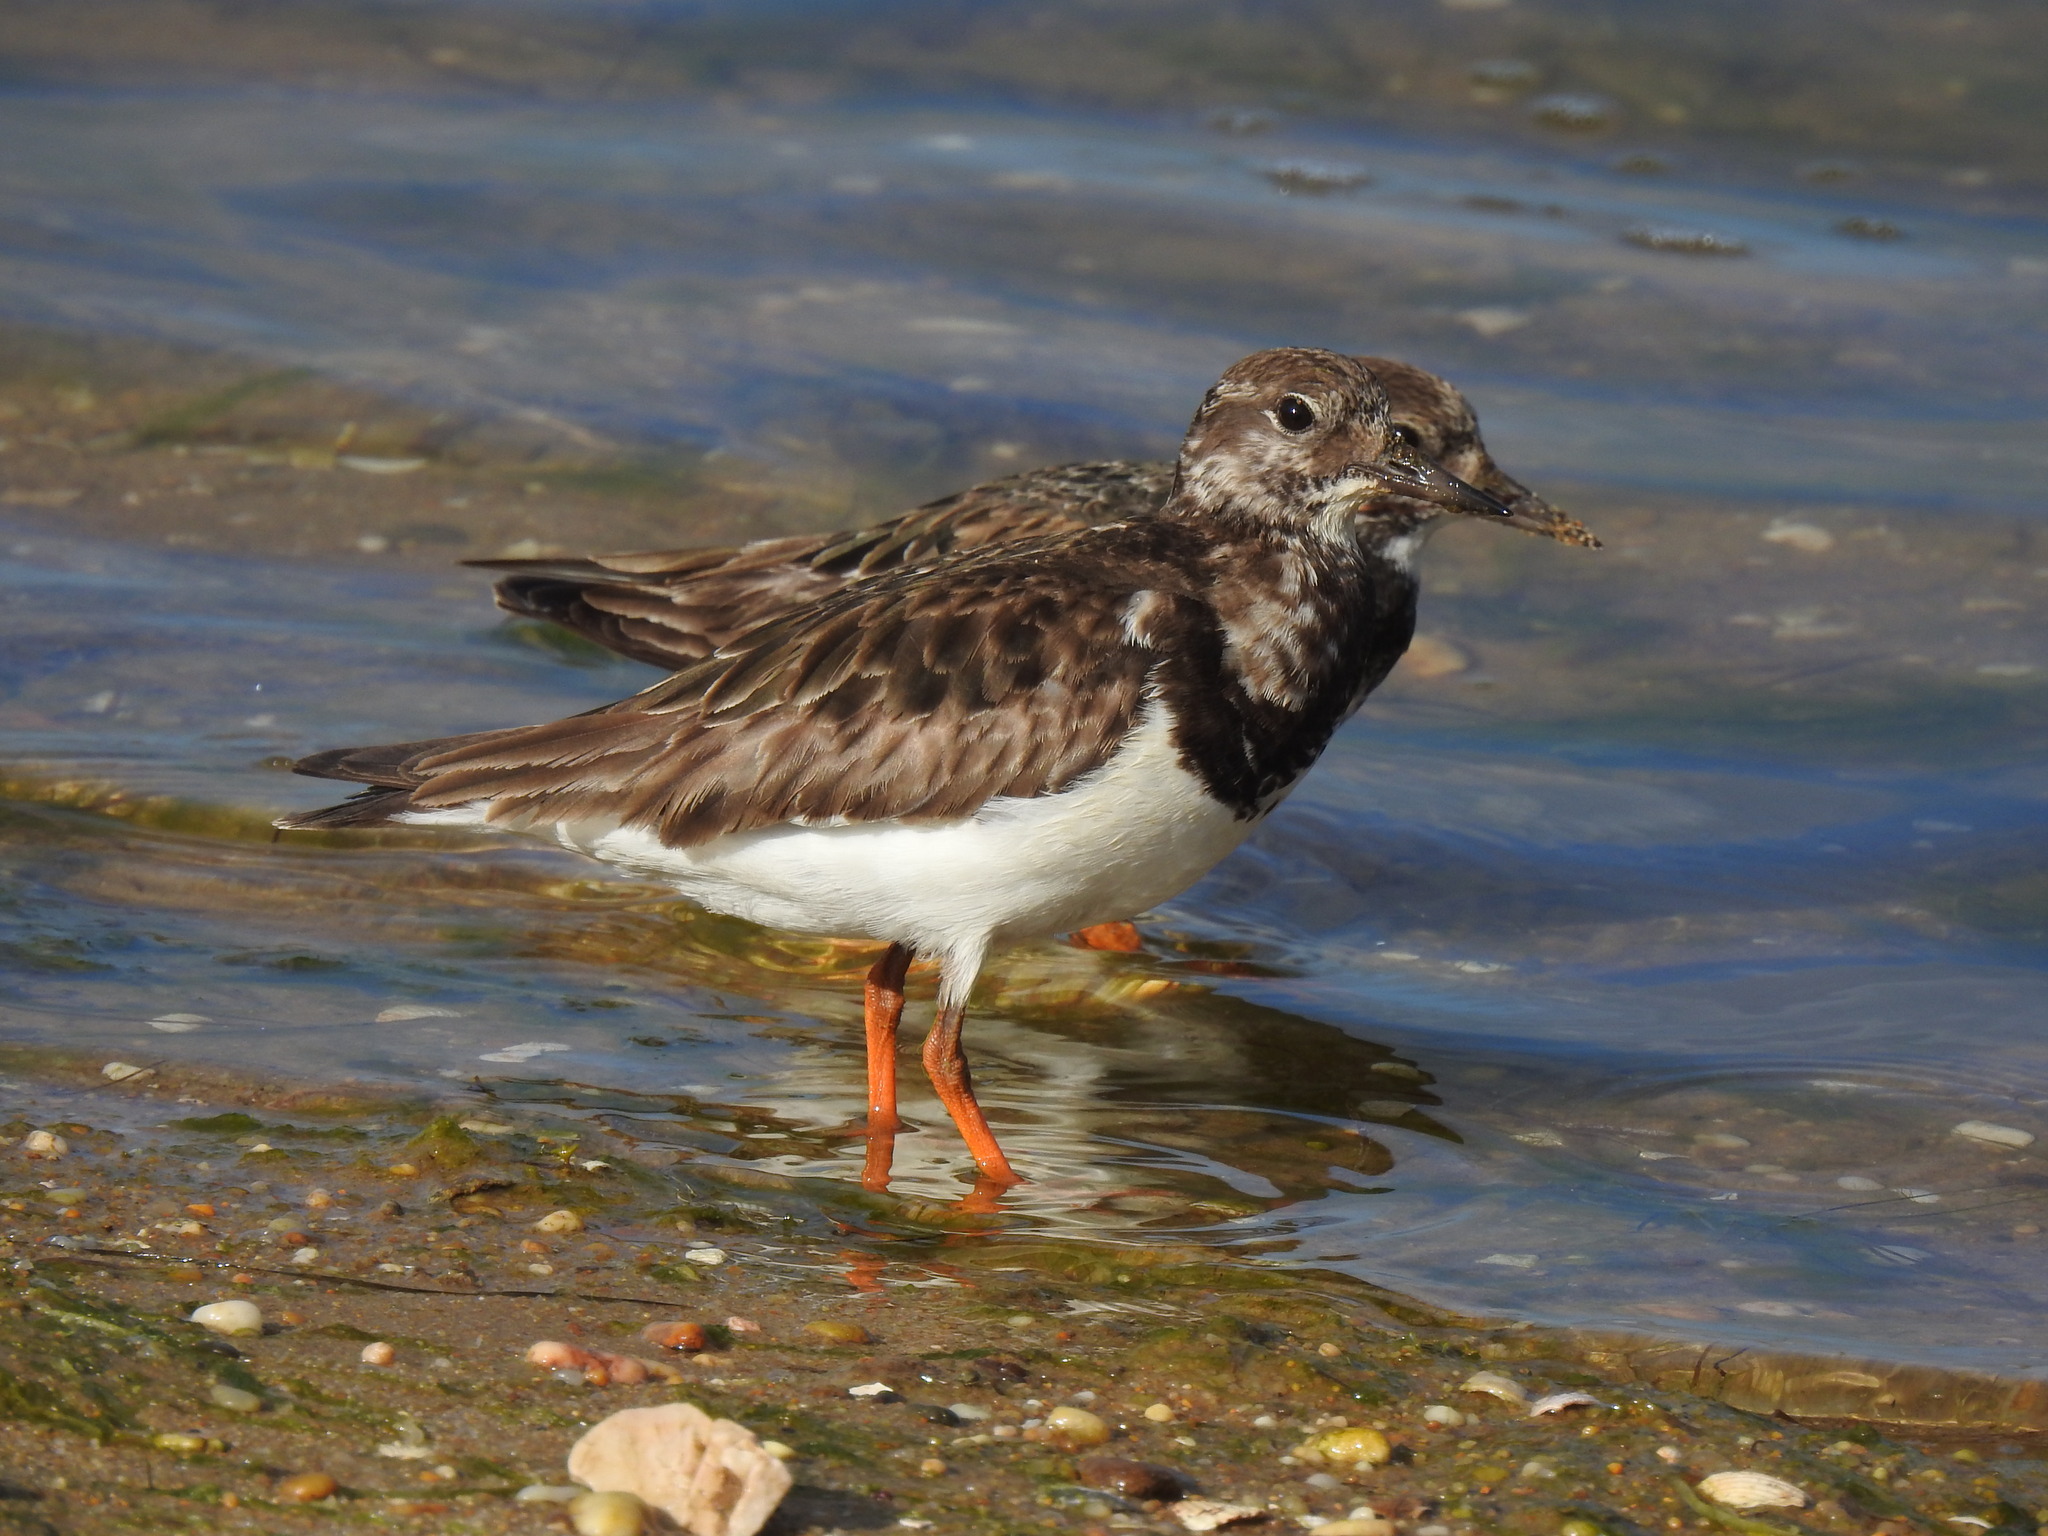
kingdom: Animalia
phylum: Chordata
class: Aves
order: Charadriiformes
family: Scolopacidae
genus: Arenaria
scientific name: Arenaria interpres
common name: Ruddy turnstone
